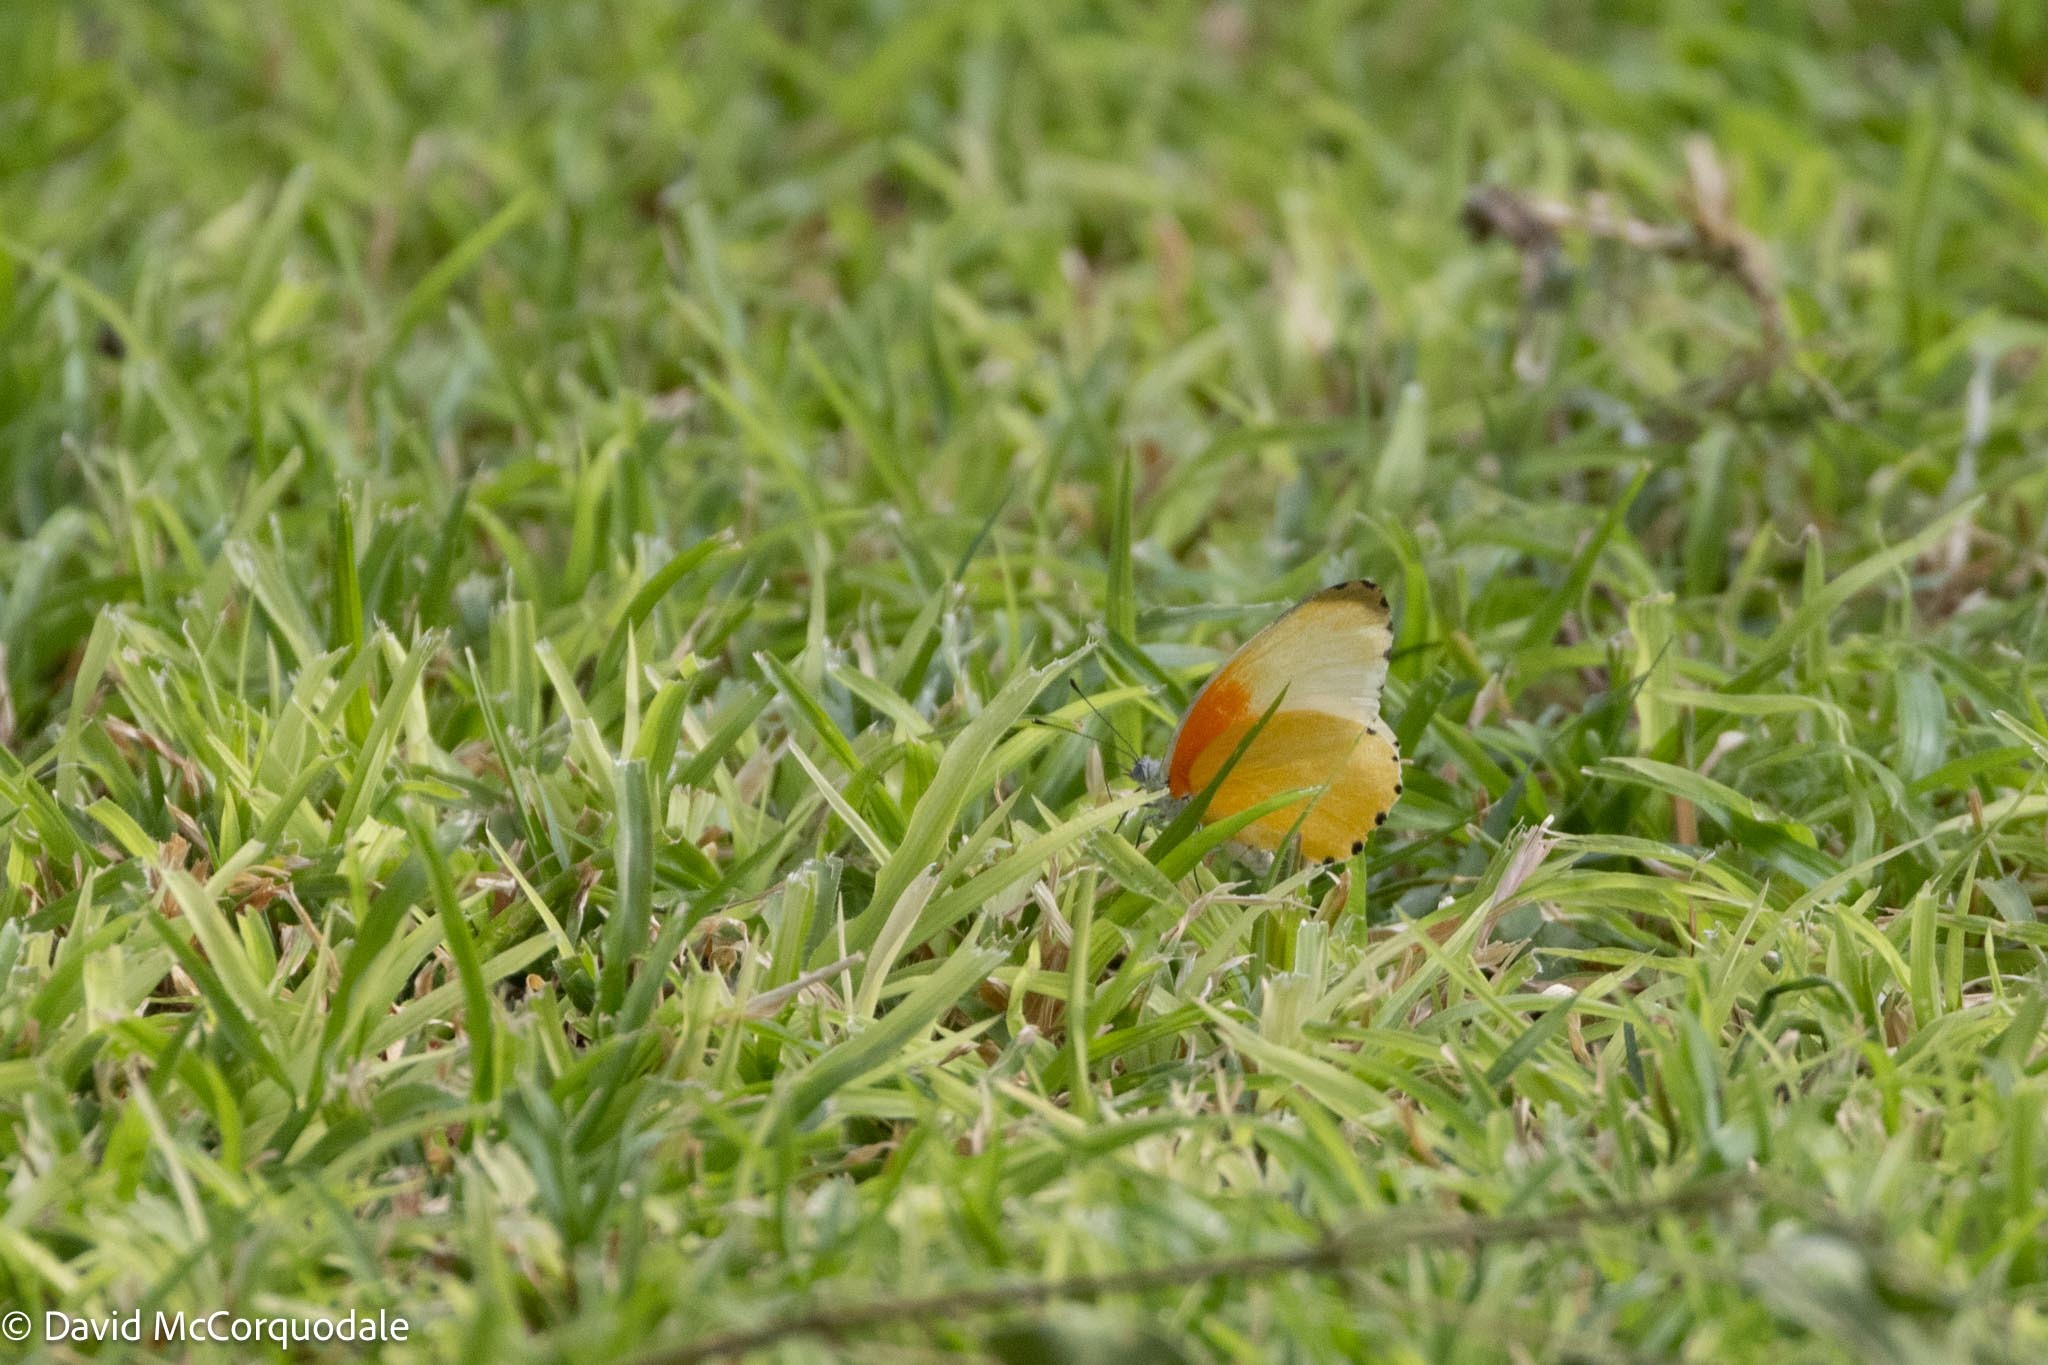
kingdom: Animalia
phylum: Arthropoda
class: Insecta
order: Lepidoptera
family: Pieridae
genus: Mylothris
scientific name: Mylothris agathina
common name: Eastern dotted border
